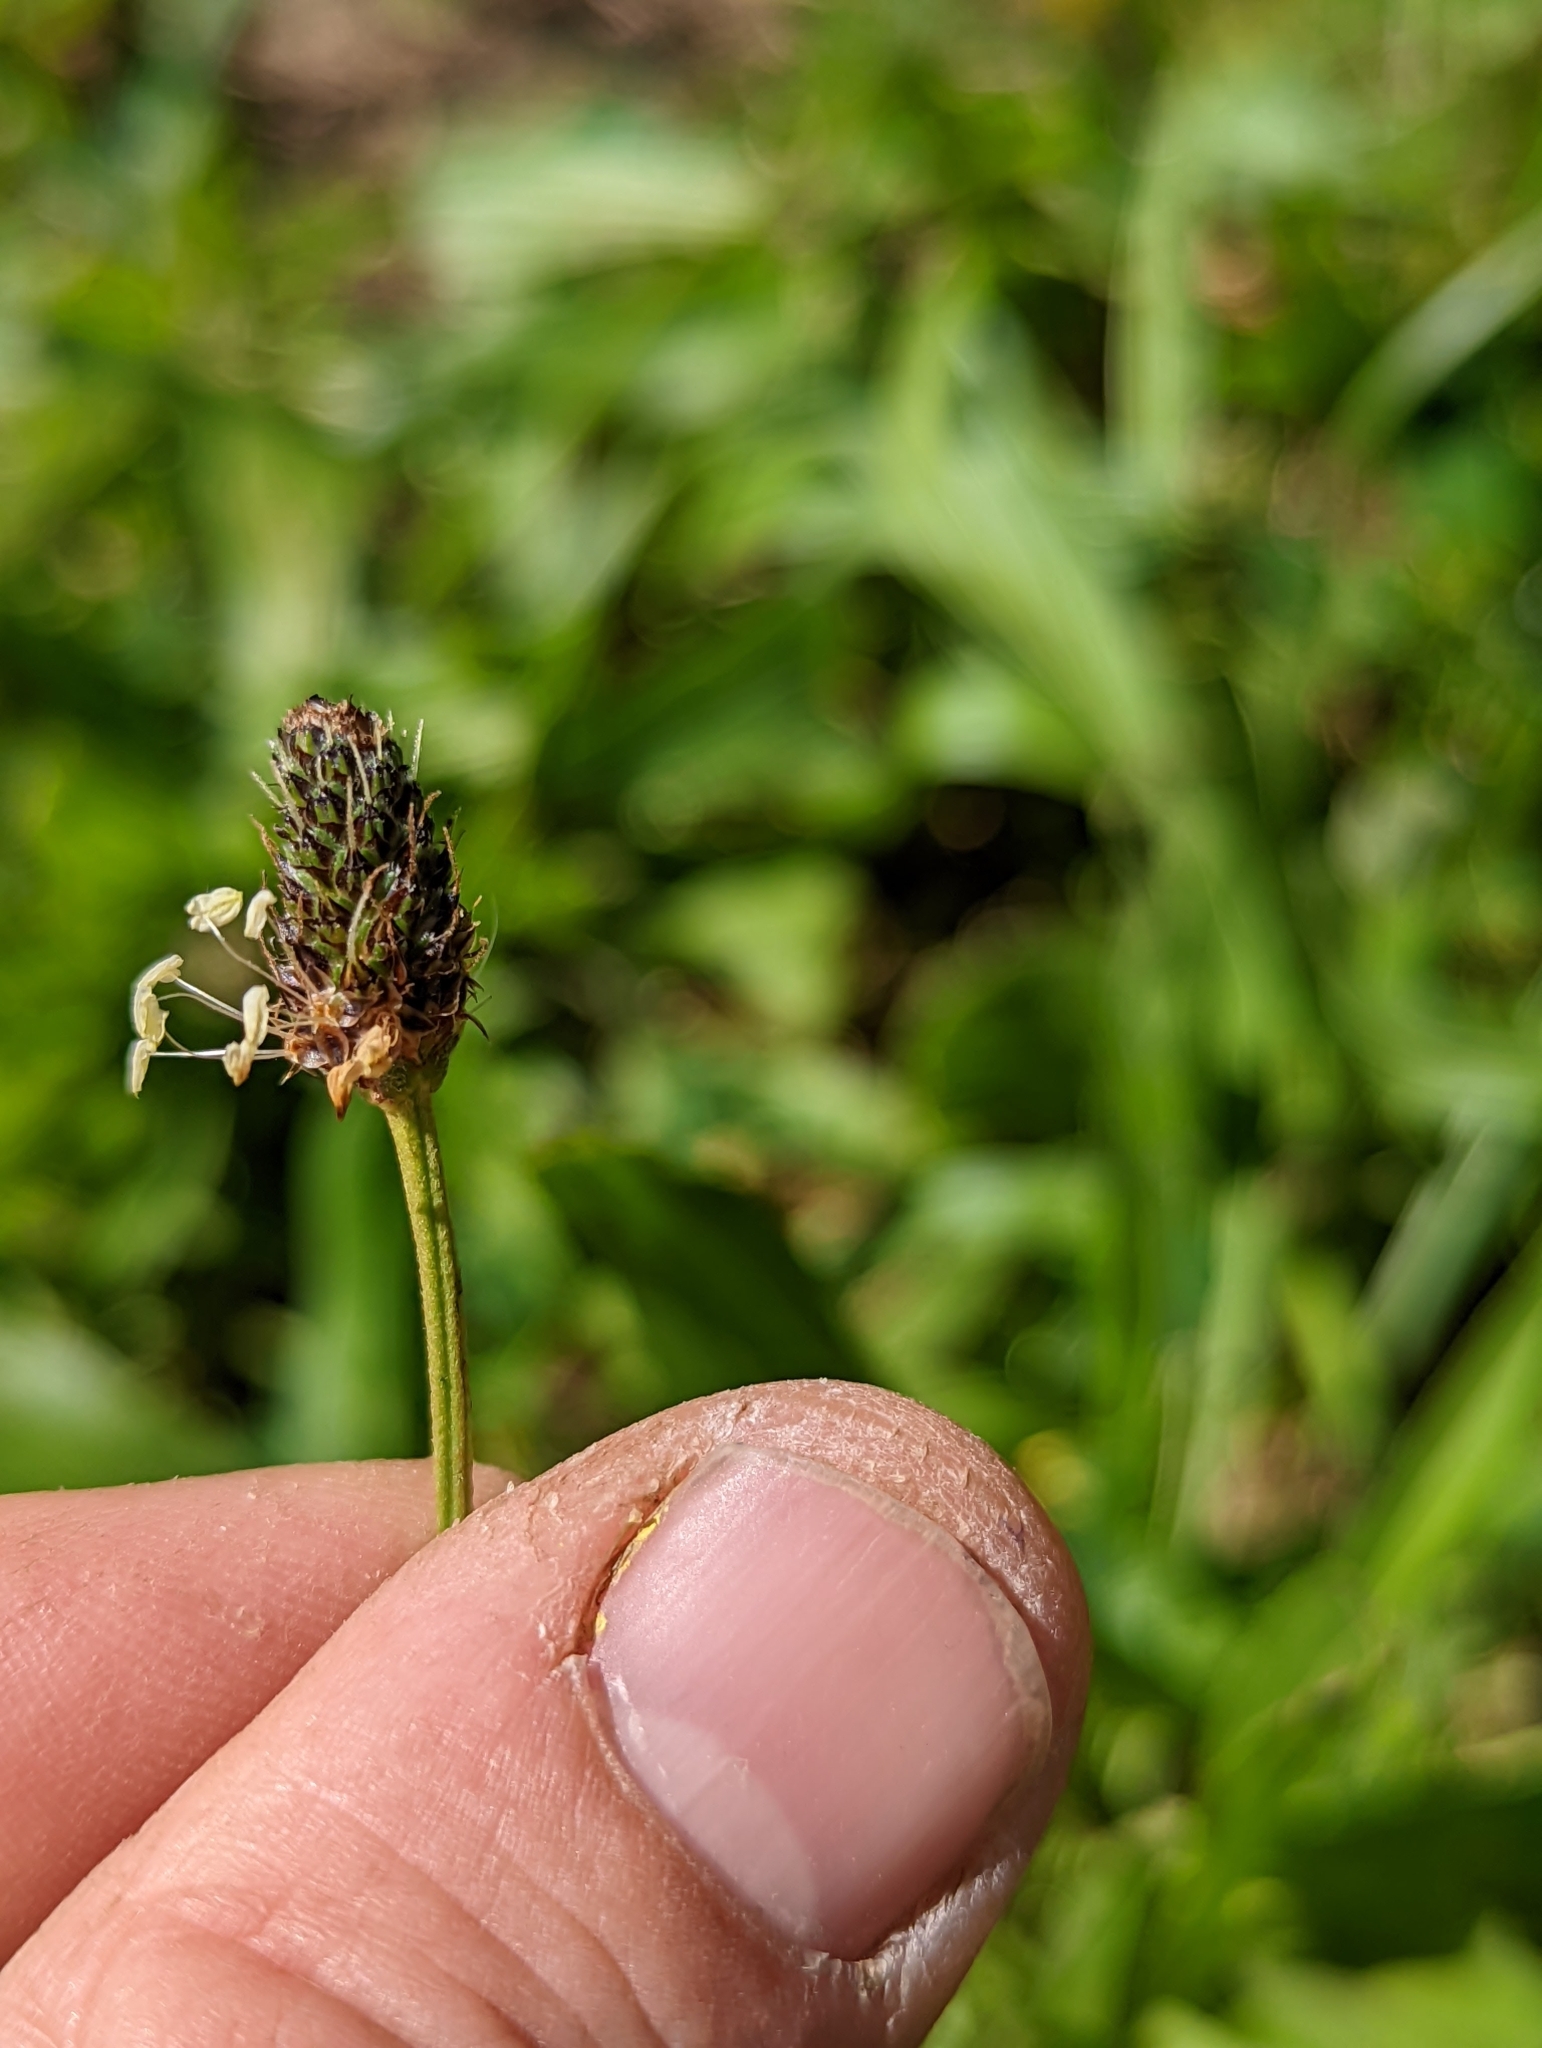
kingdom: Plantae
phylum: Tracheophyta
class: Magnoliopsida
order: Lamiales
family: Plantaginaceae
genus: Plantago
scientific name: Plantago lanceolata
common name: Ribwort plantain
